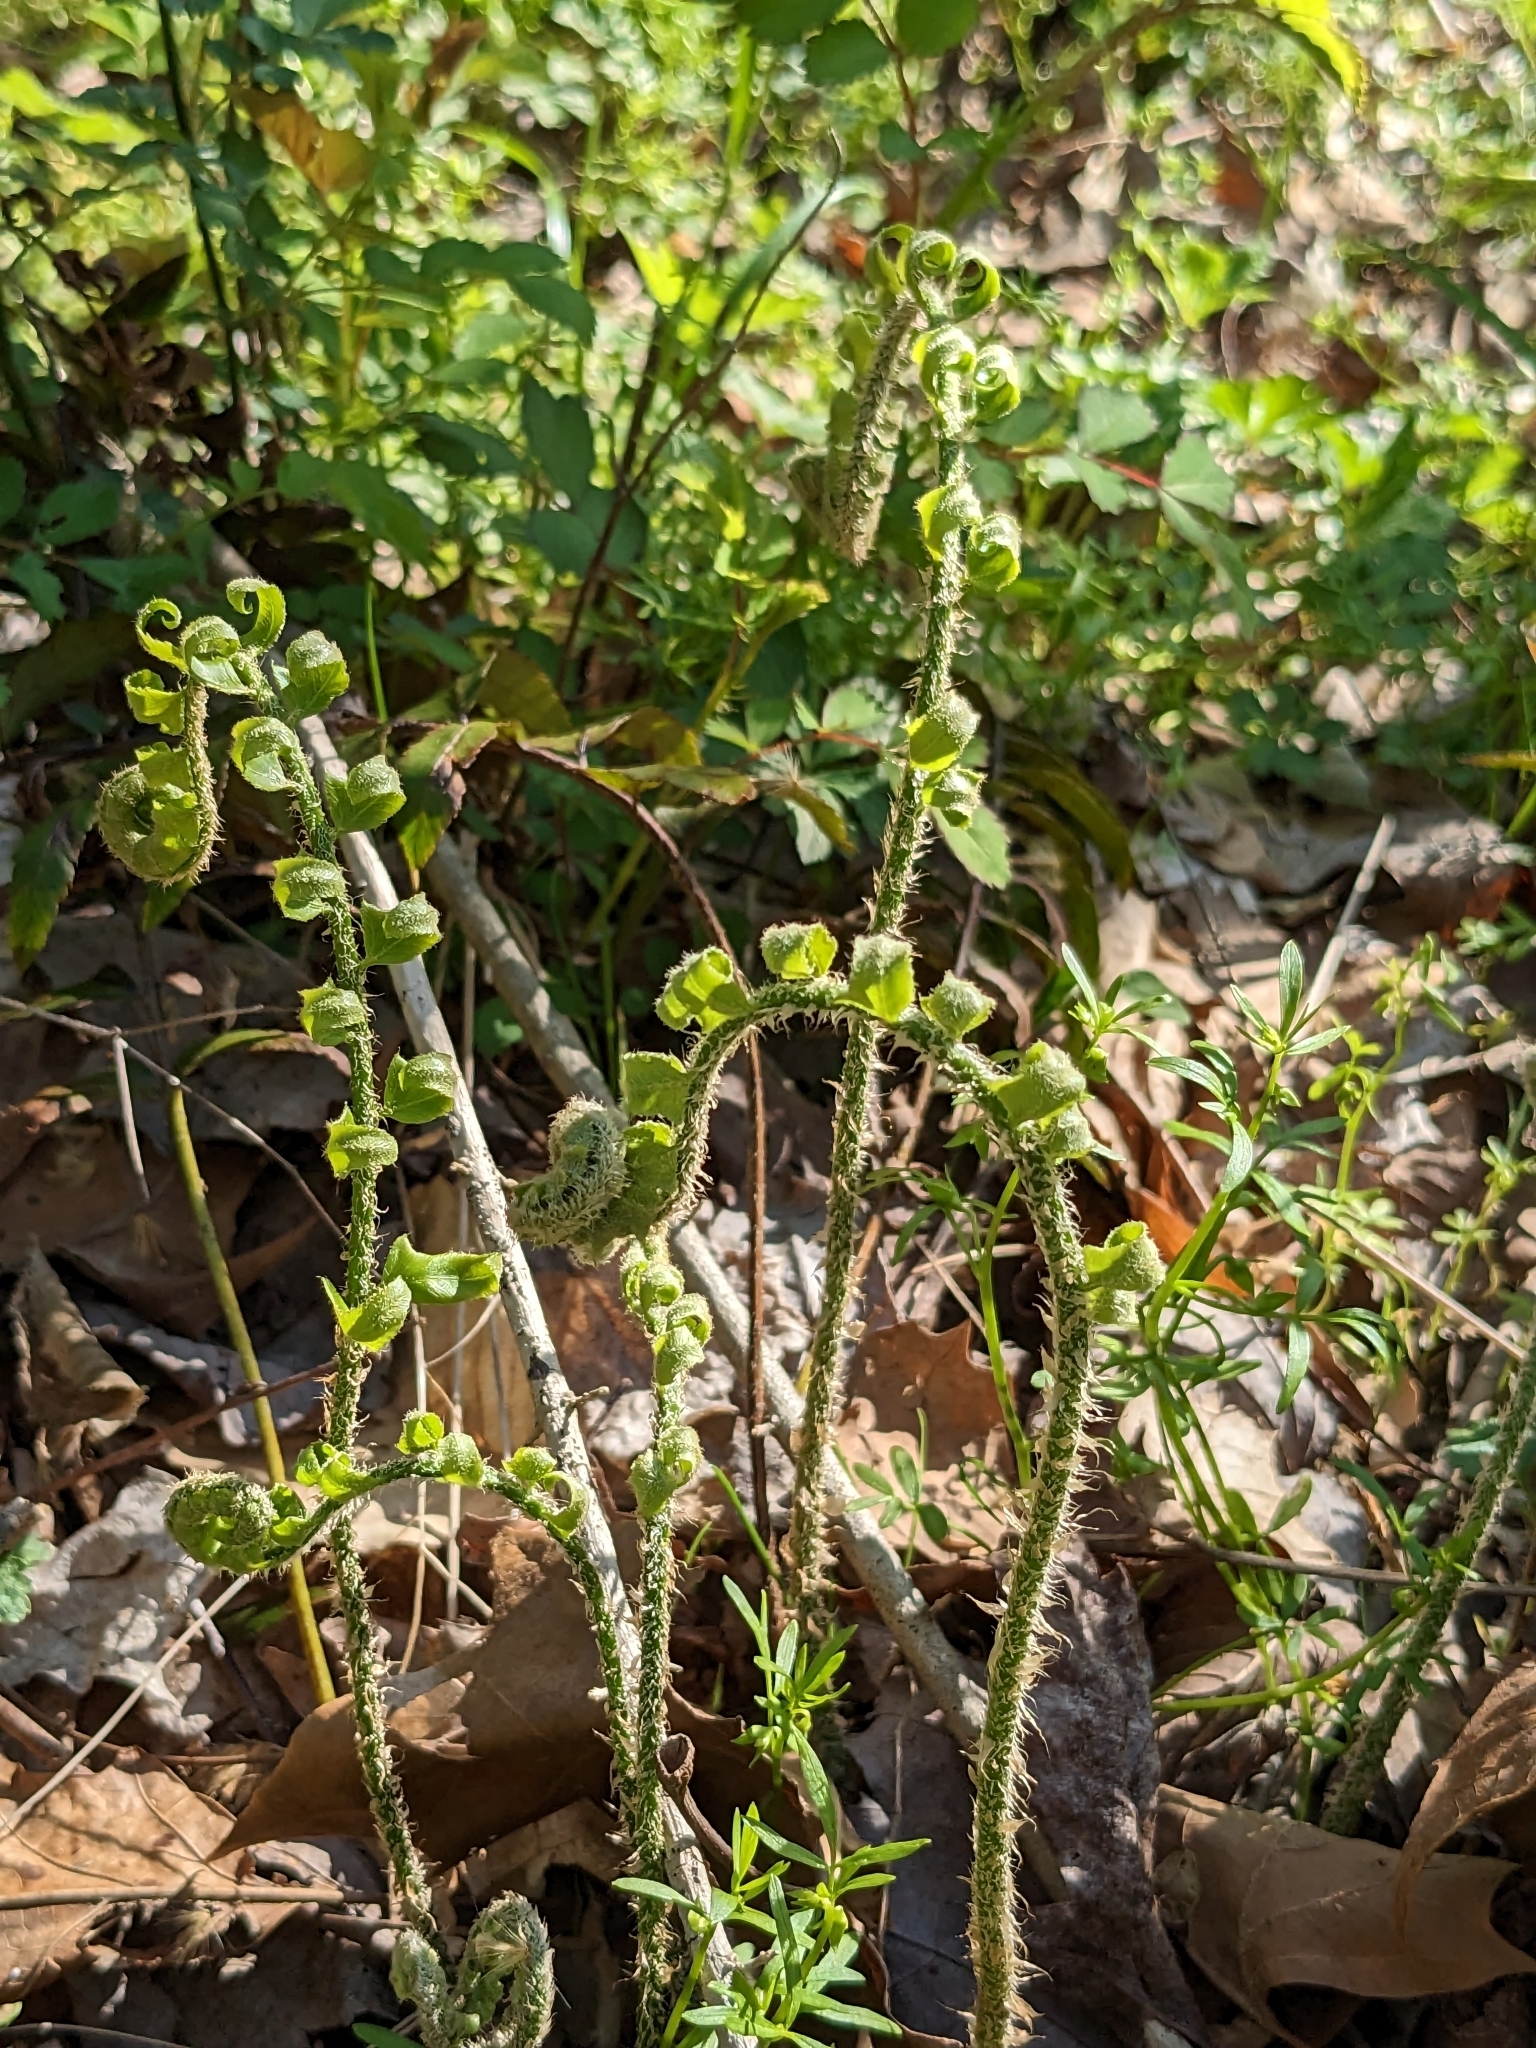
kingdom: Plantae
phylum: Tracheophyta
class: Polypodiopsida
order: Polypodiales
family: Dryopteridaceae
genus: Polystichum
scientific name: Polystichum acrostichoides
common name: Christmas fern
